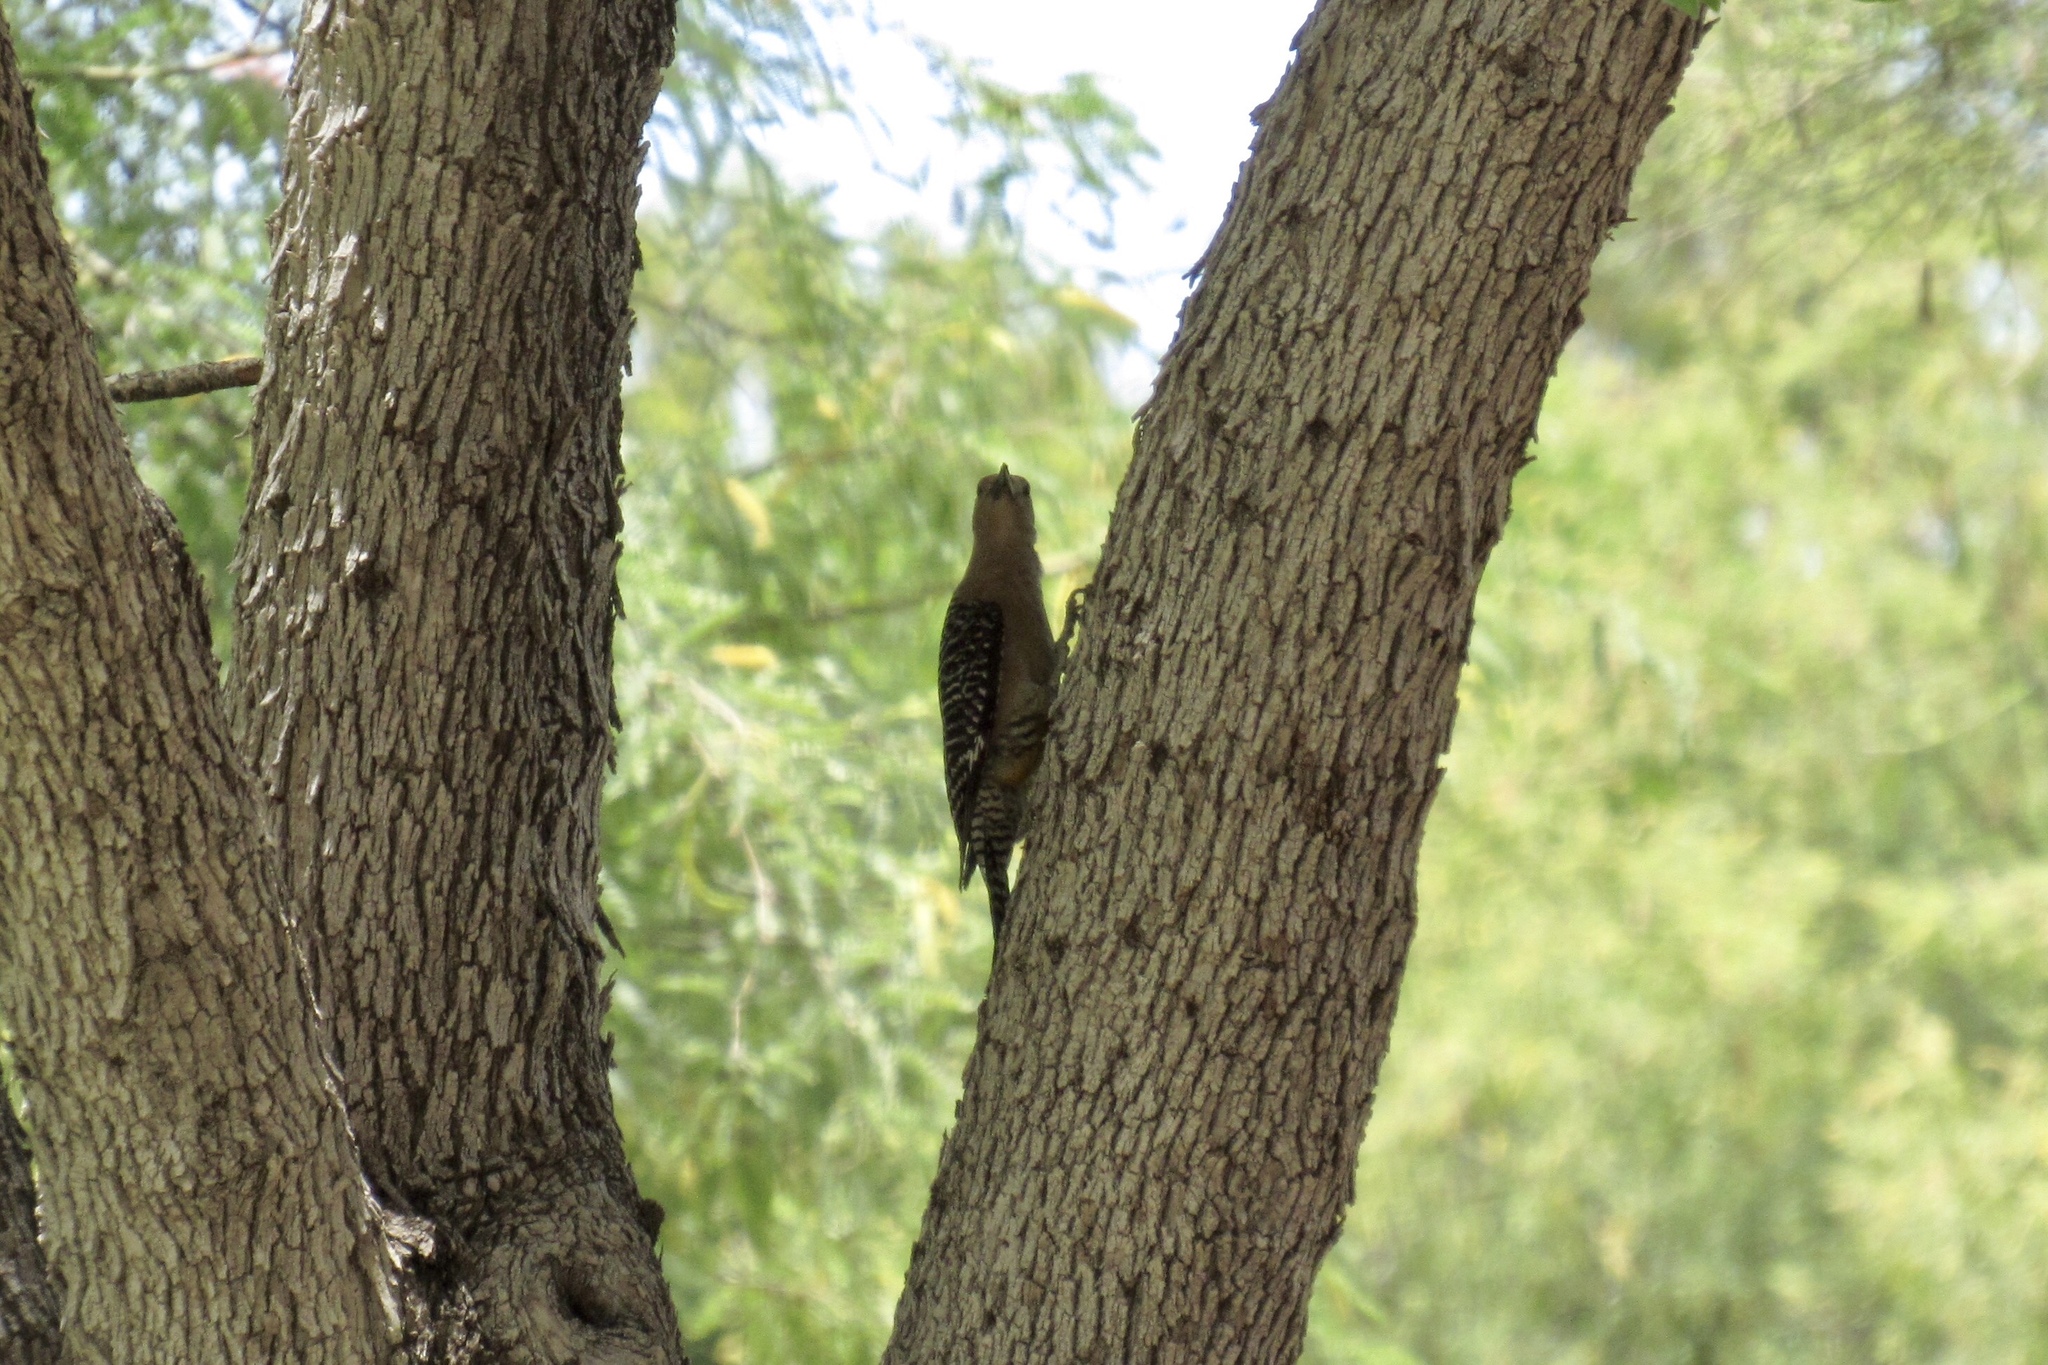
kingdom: Animalia
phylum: Chordata
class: Aves
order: Piciformes
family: Picidae
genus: Melanerpes
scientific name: Melanerpes uropygialis
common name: Gila woodpecker
